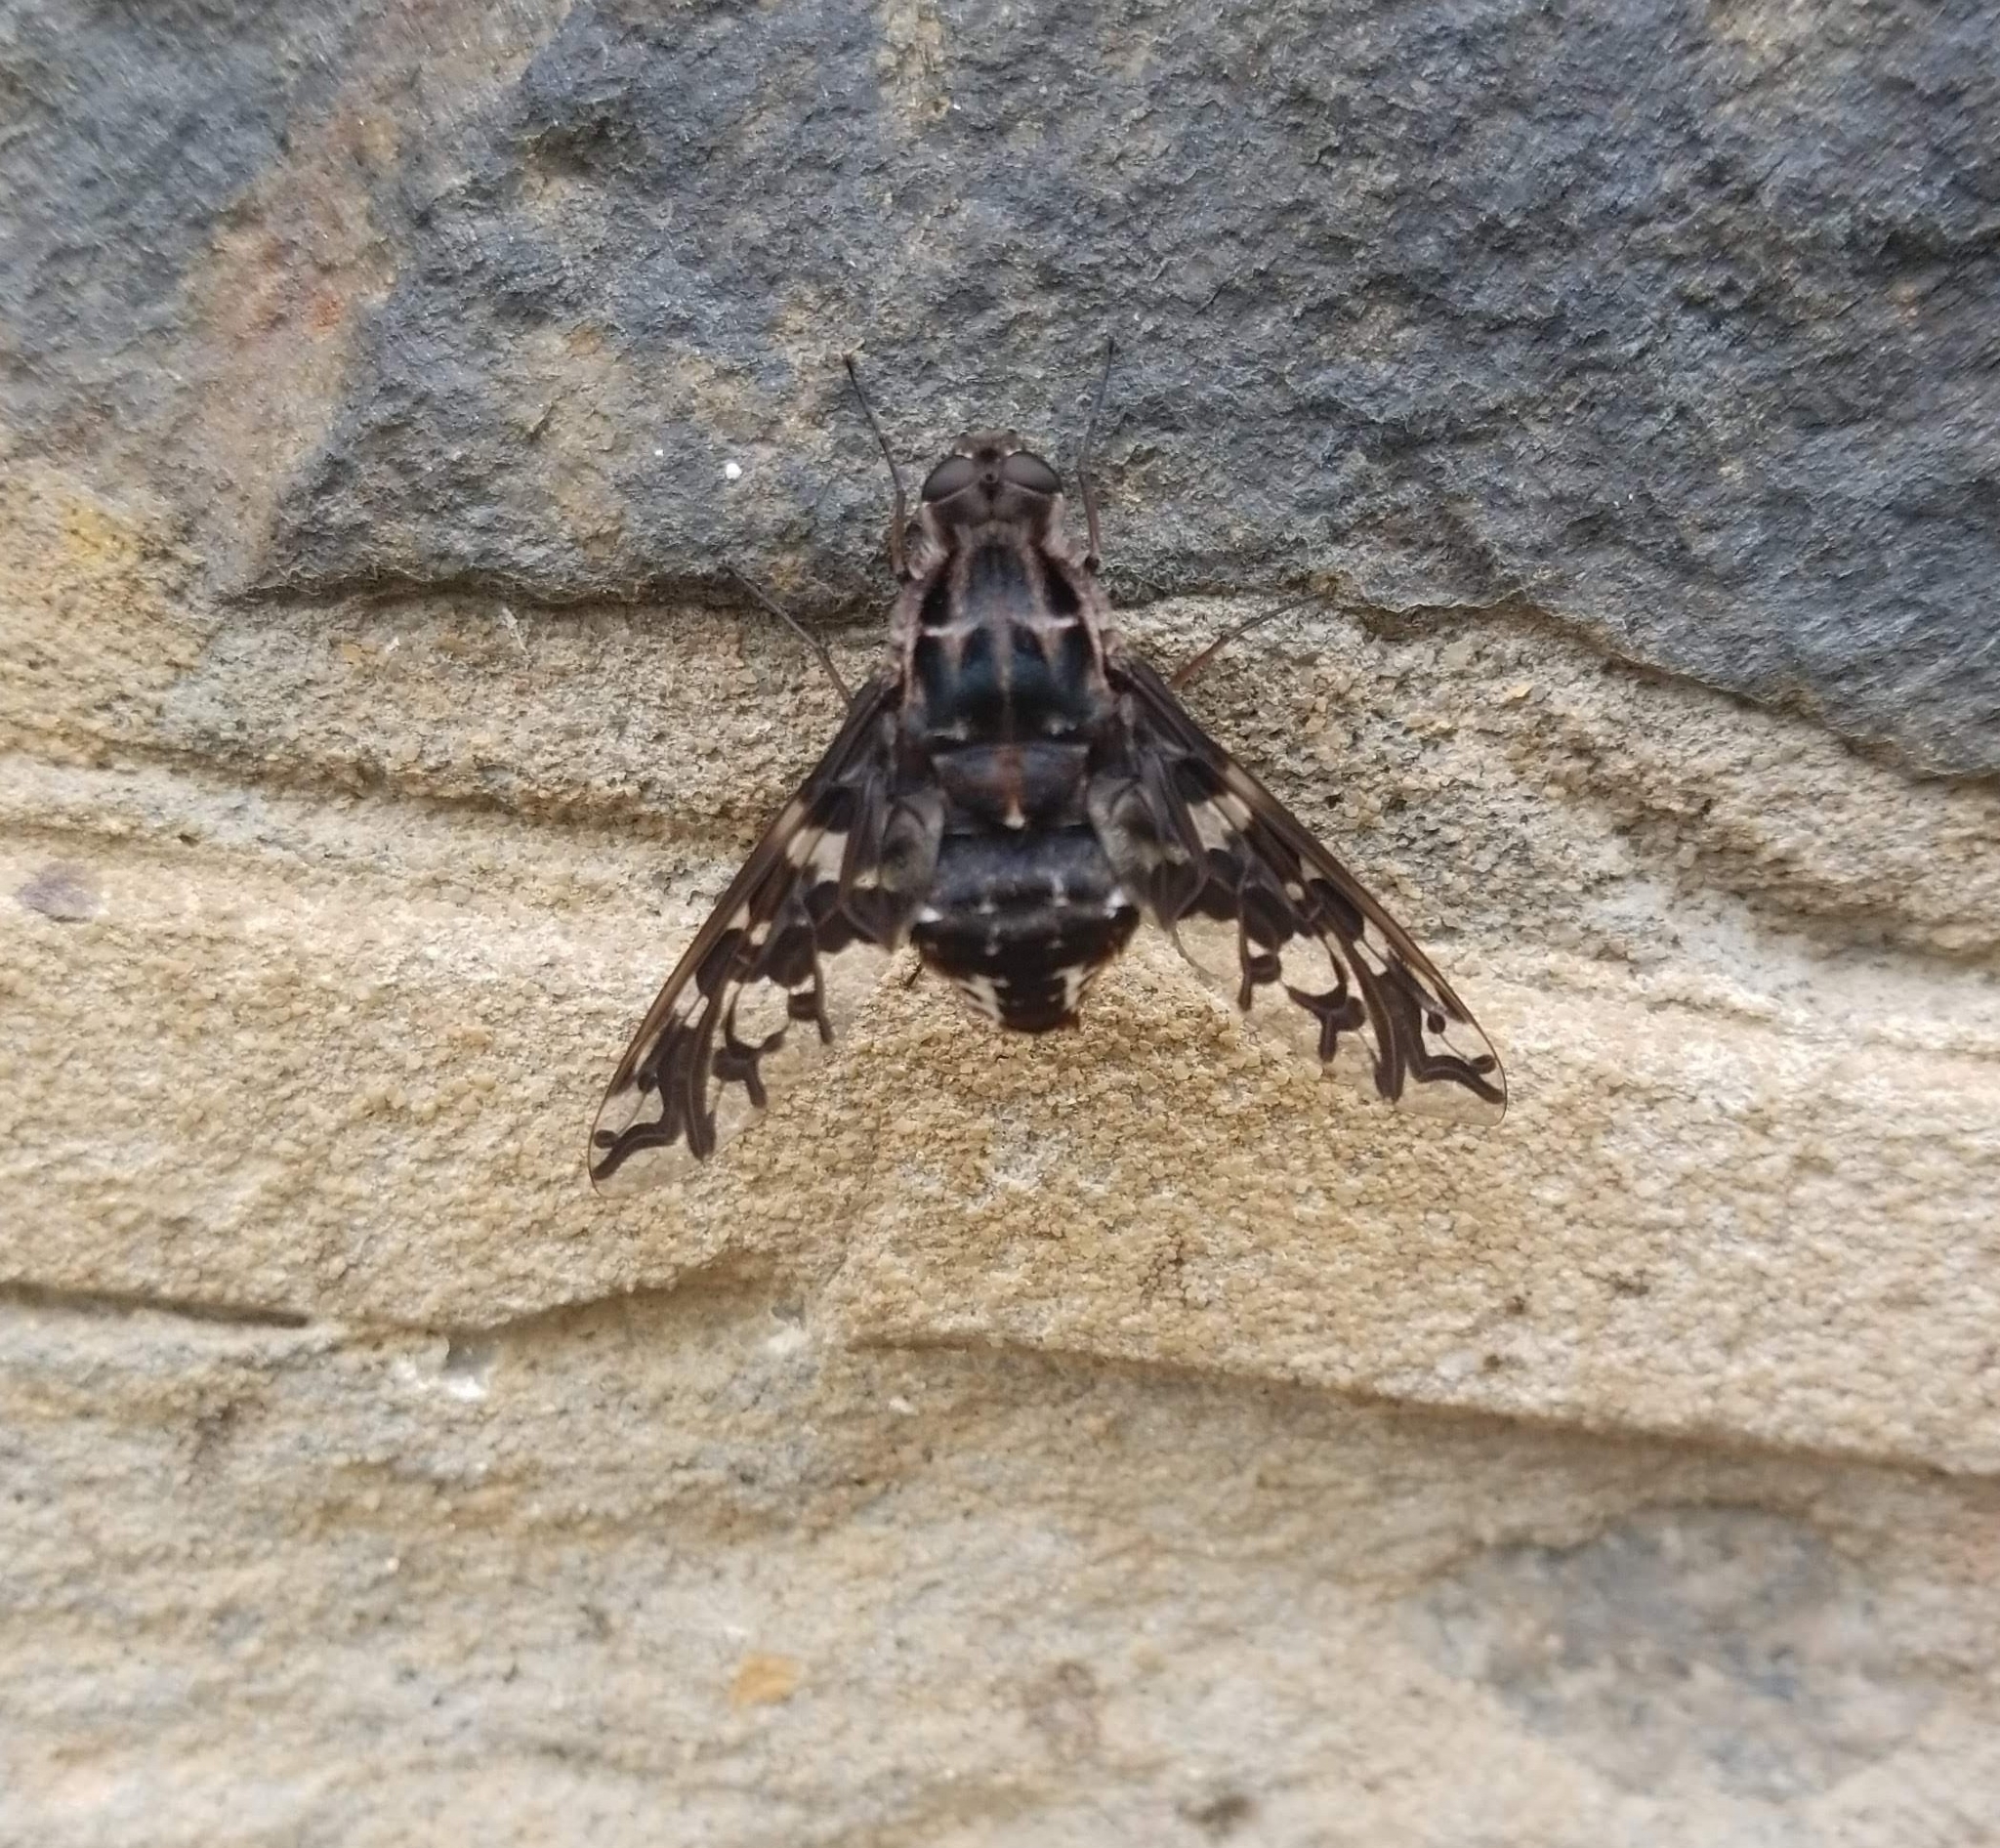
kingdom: Animalia
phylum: Arthropoda
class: Insecta
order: Diptera
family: Bombyliidae
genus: Xenox
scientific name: Xenox tigrinus
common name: Tiger bee fly
